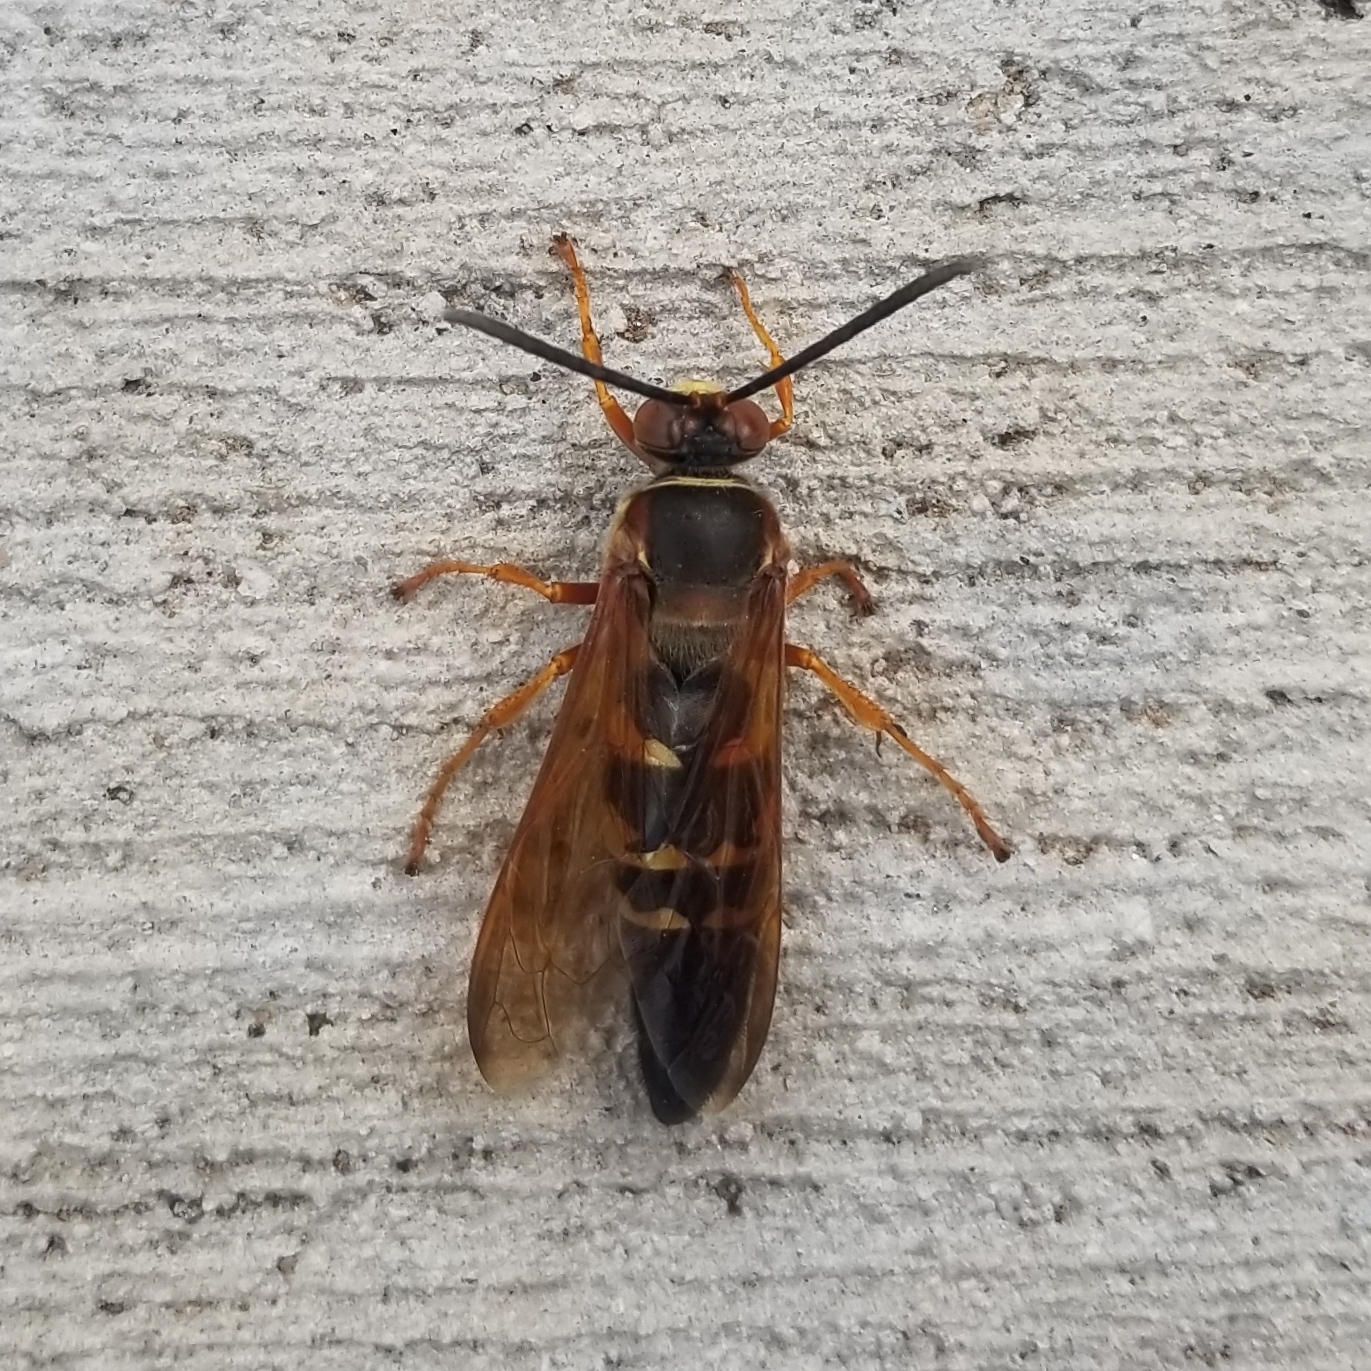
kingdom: Animalia
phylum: Arthropoda
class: Insecta
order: Hymenoptera
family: Crabronidae
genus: Sphecius
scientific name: Sphecius speciosus
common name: Cicada killer
